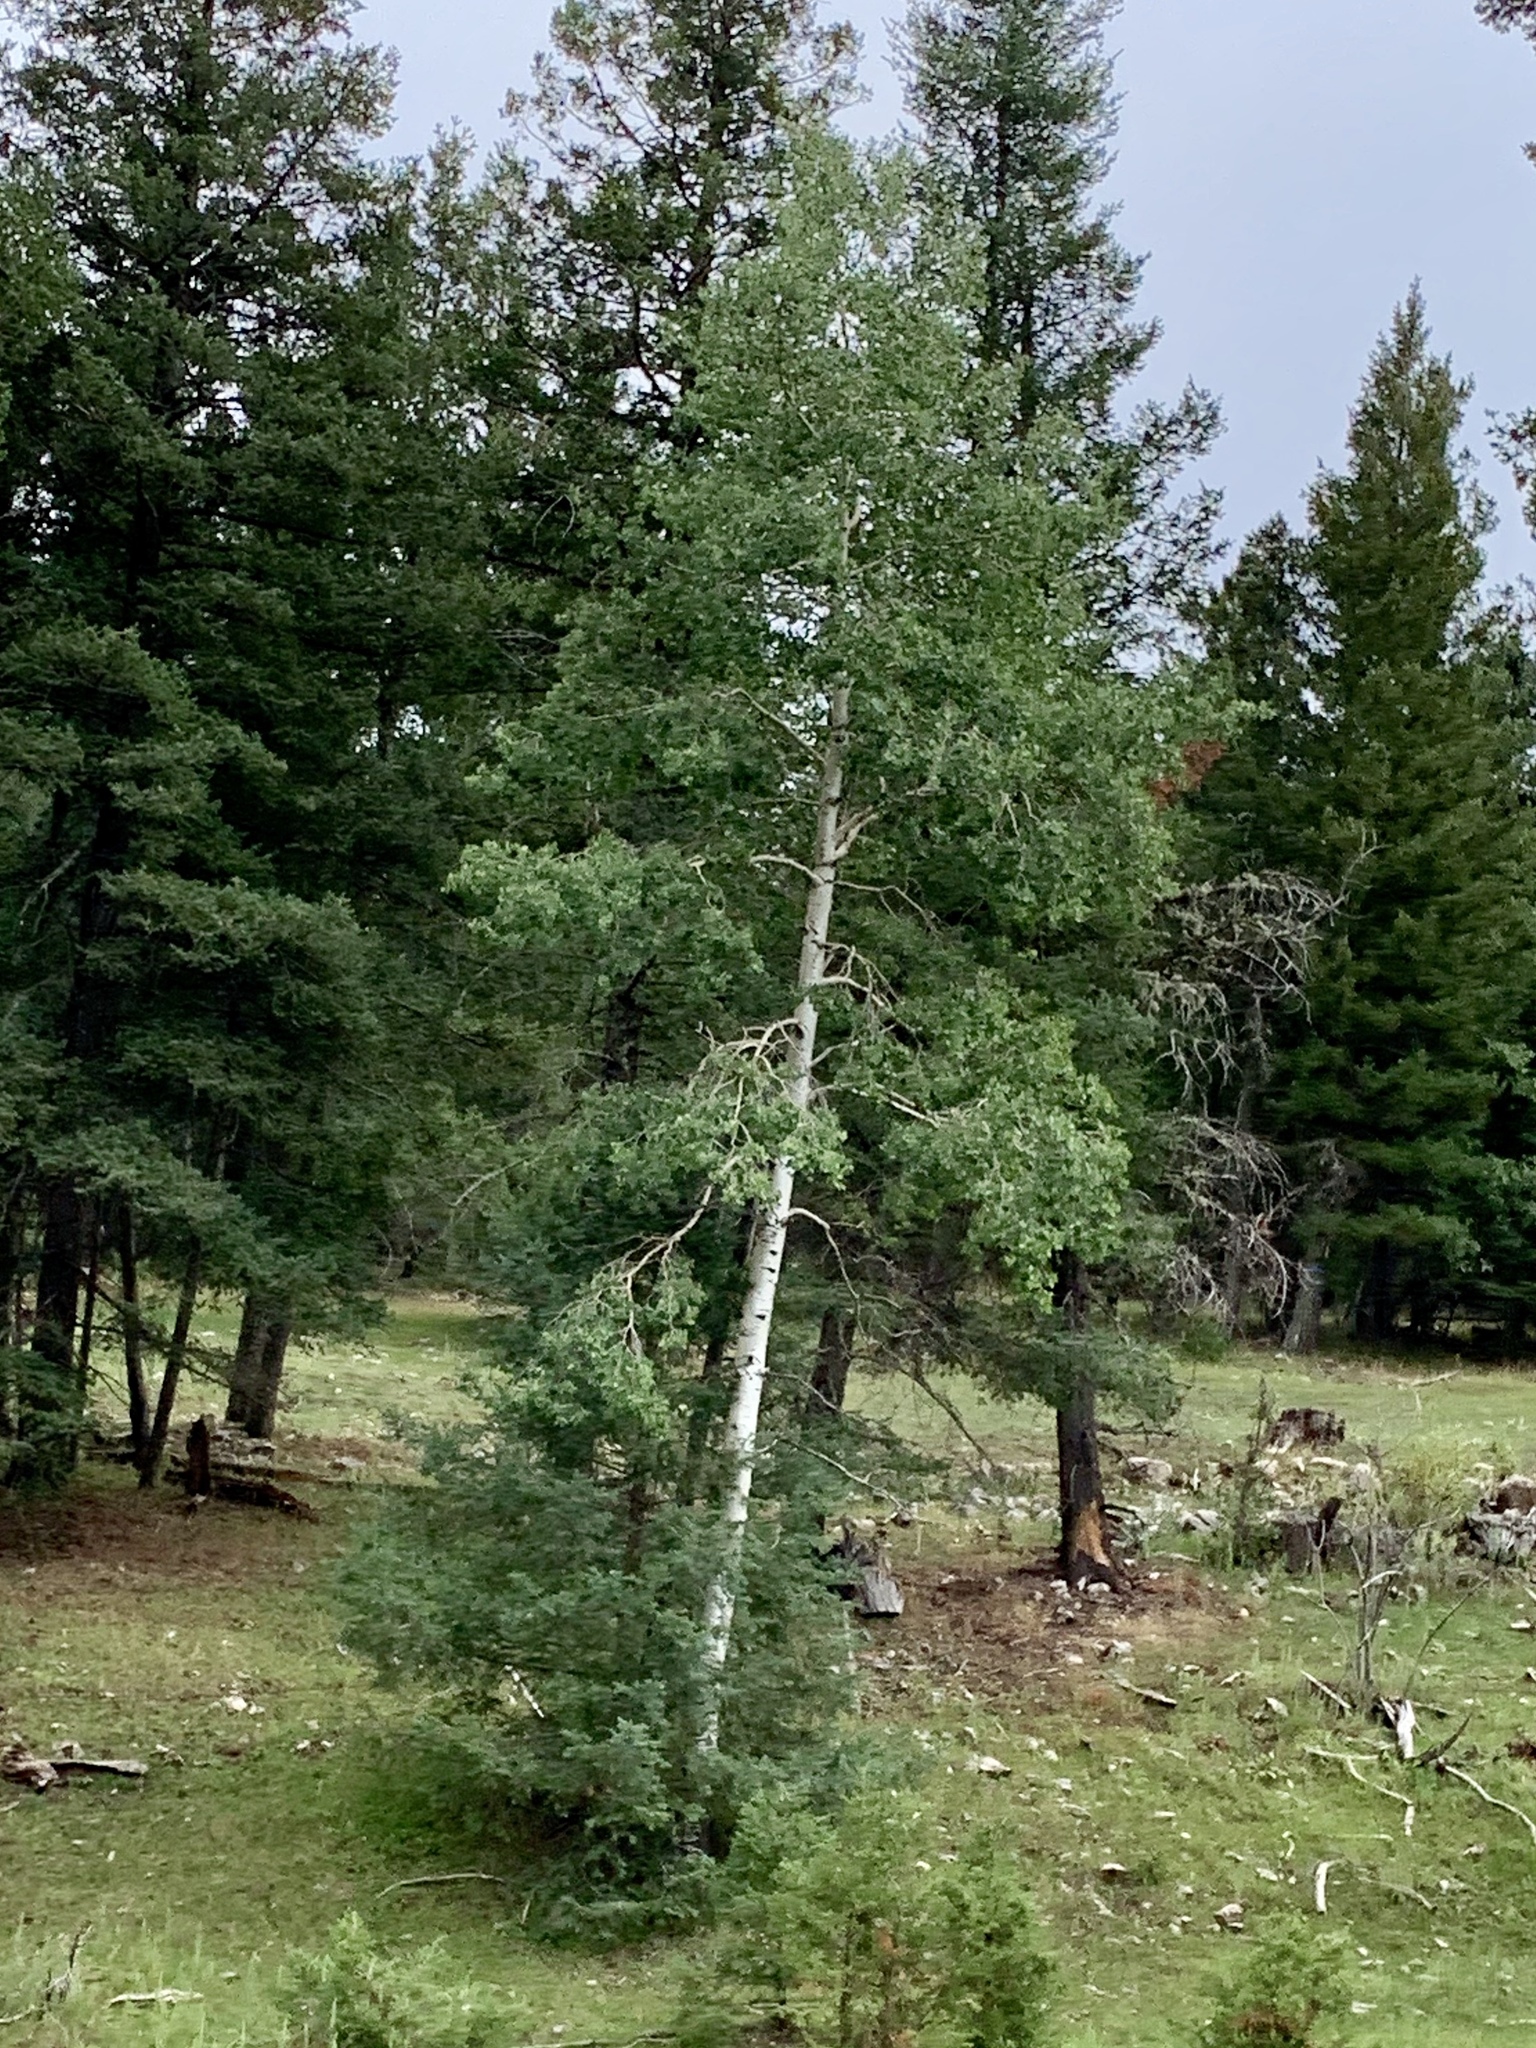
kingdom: Plantae
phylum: Tracheophyta
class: Magnoliopsida
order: Malpighiales
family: Salicaceae
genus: Populus
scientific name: Populus tremuloides
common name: Quaking aspen
